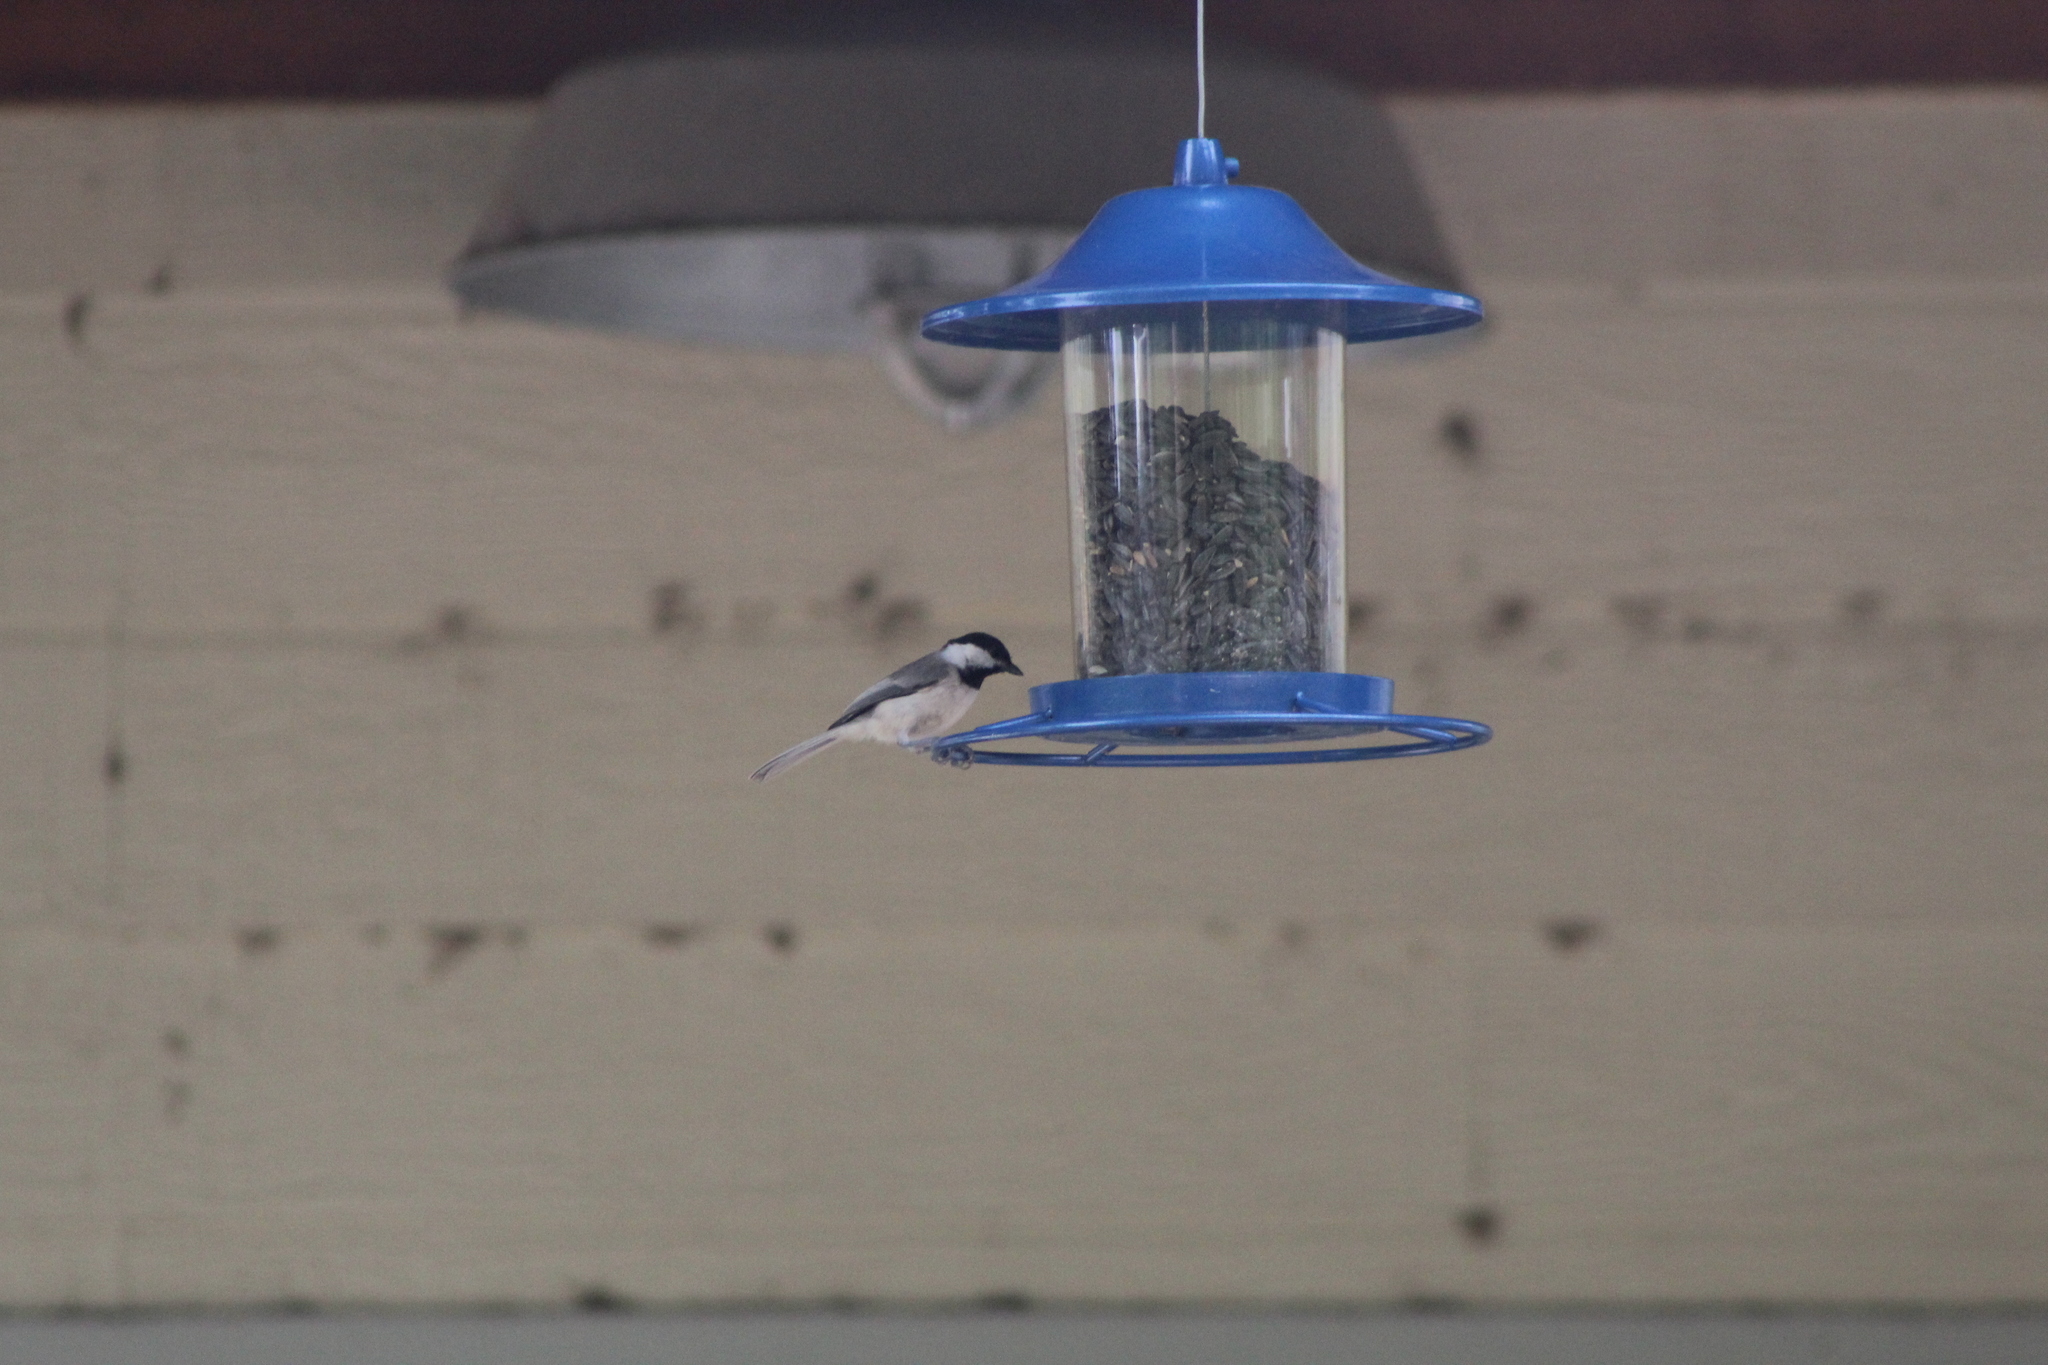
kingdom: Animalia
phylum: Chordata
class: Aves
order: Passeriformes
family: Paridae
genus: Poecile
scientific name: Poecile carolinensis
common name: Carolina chickadee
